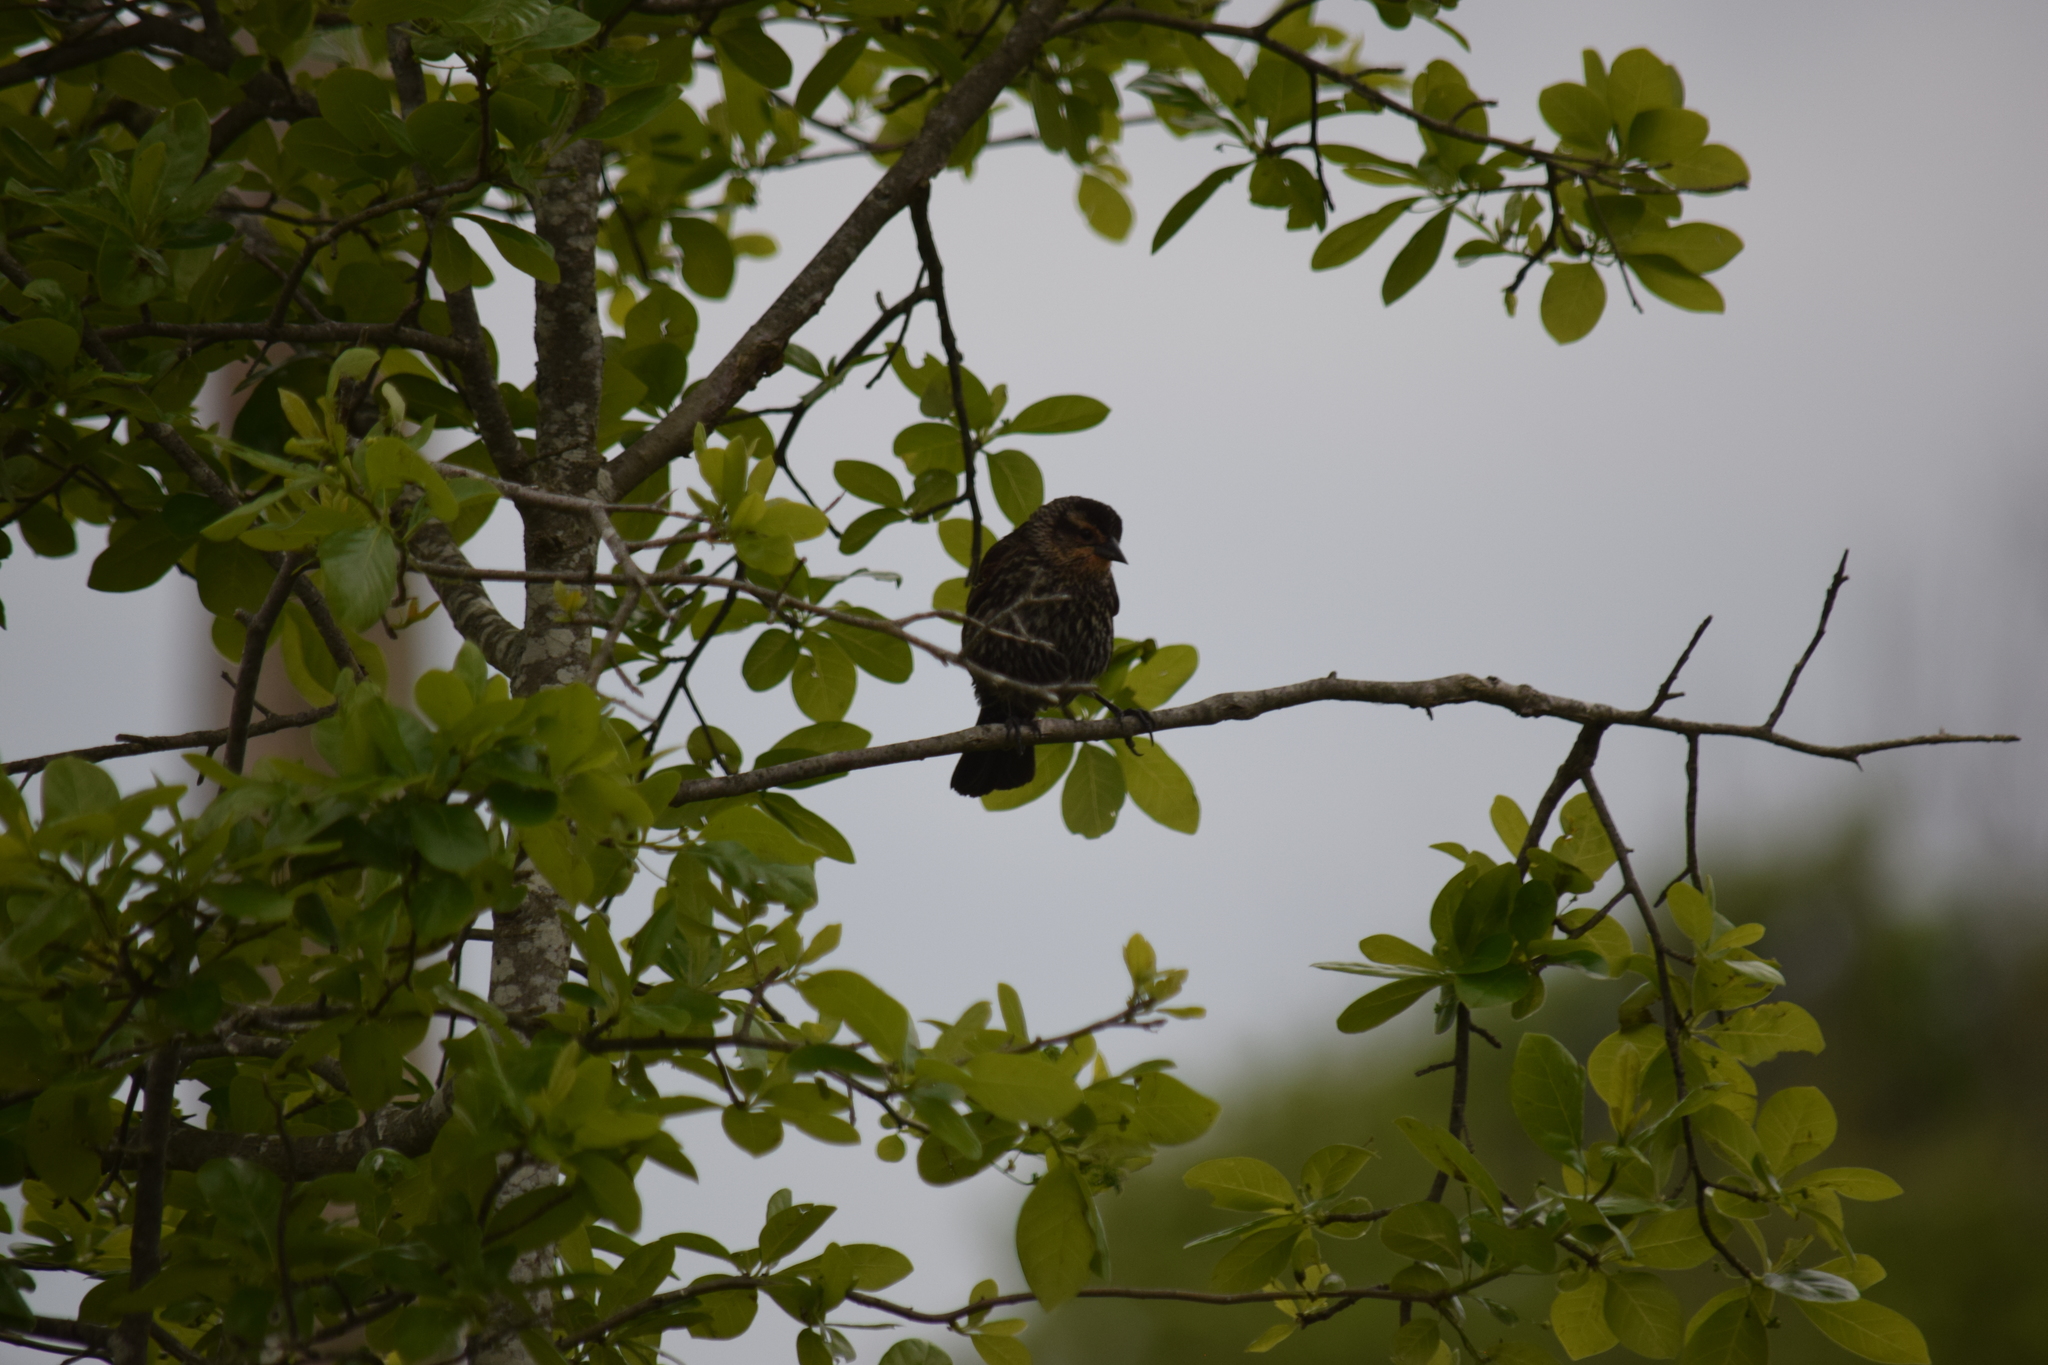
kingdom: Animalia
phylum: Chordata
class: Aves
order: Passeriformes
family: Icteridae
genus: Agelaius
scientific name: Agelaius phoeniceus
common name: Red-winged blackbird
